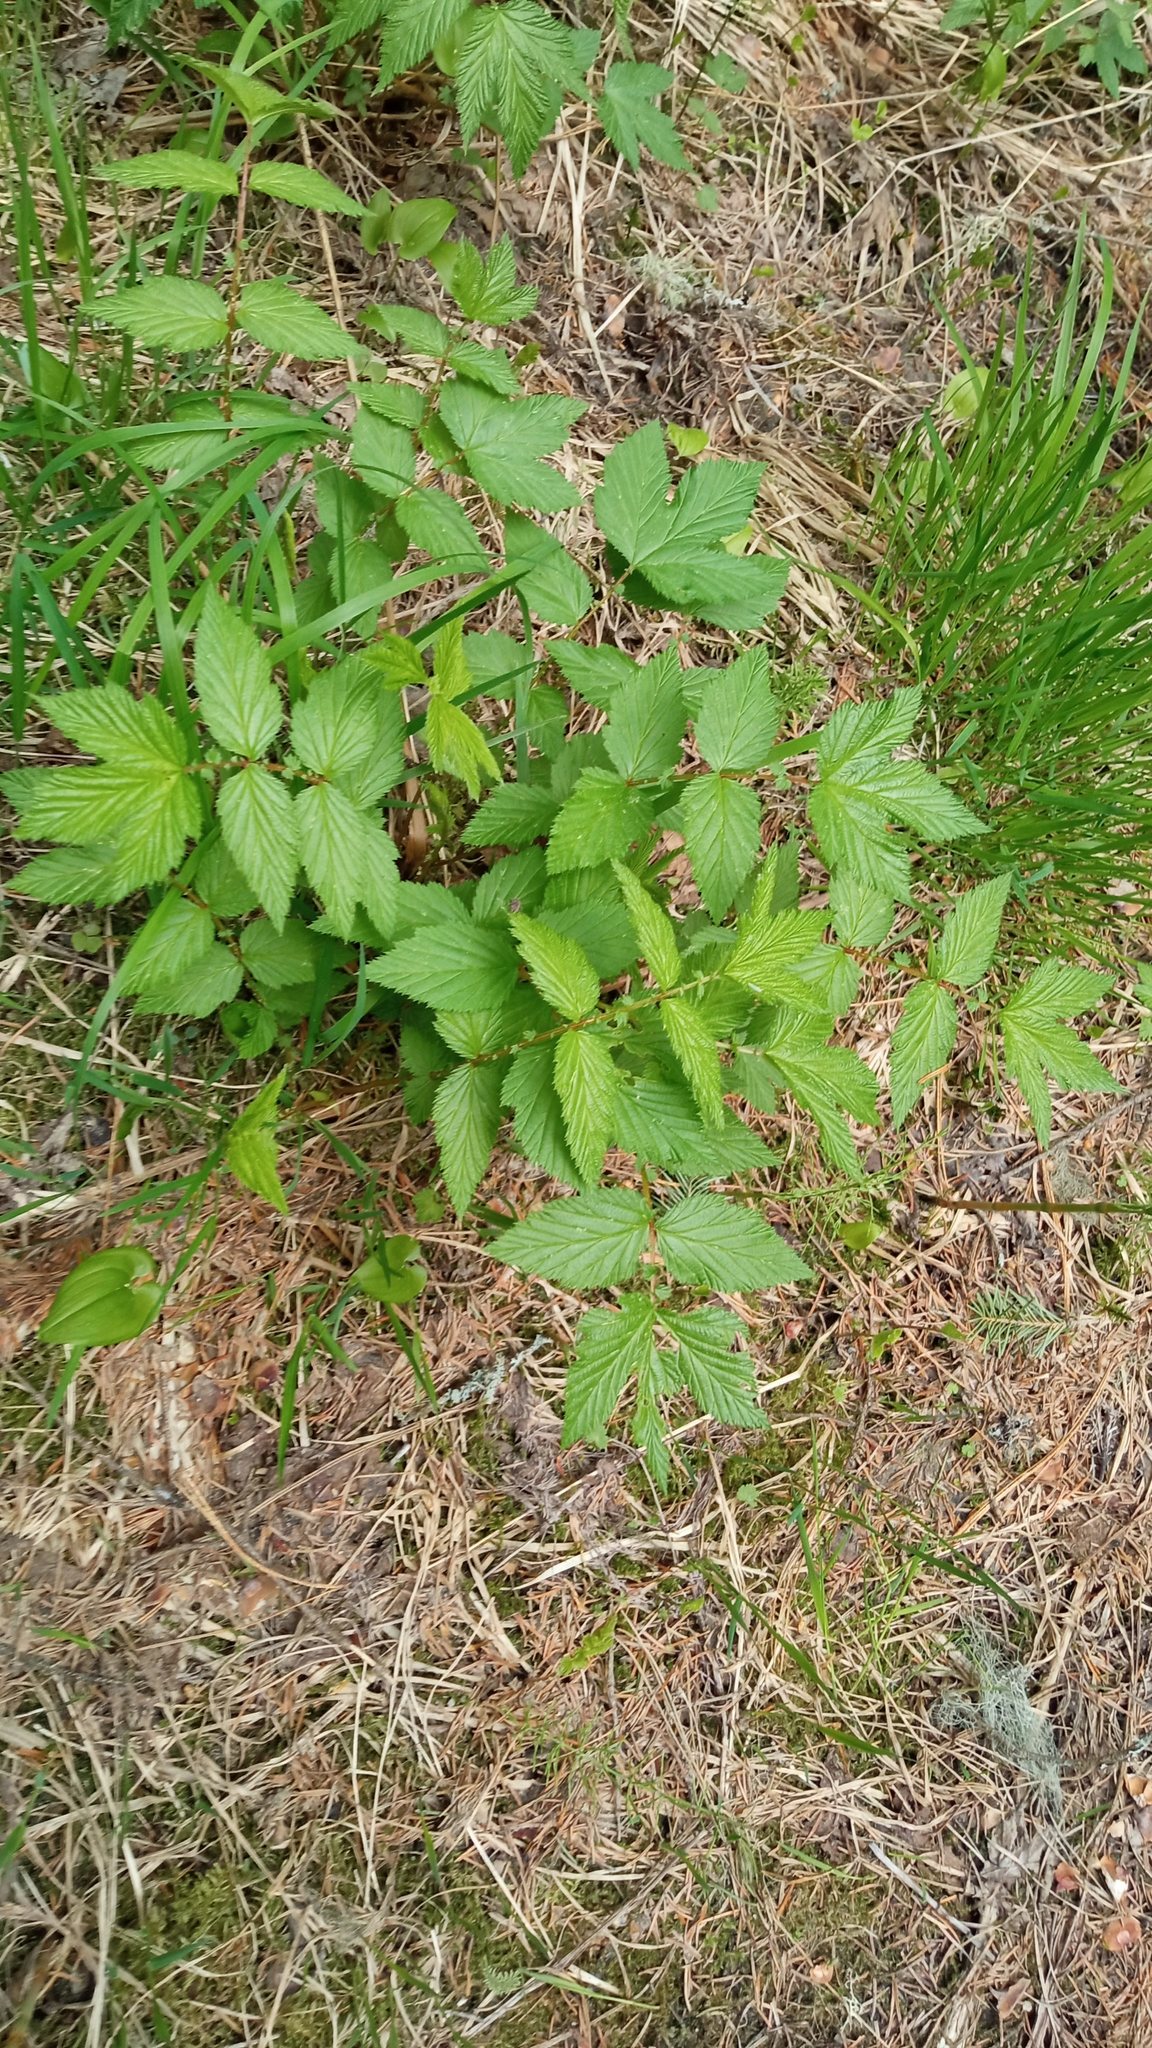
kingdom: Plantae
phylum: Tracheophyta
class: Magnoliopsida
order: Rosales
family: Rosaceae
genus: Filipendula
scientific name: Filipendula ulmaria
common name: Meadowsweet
